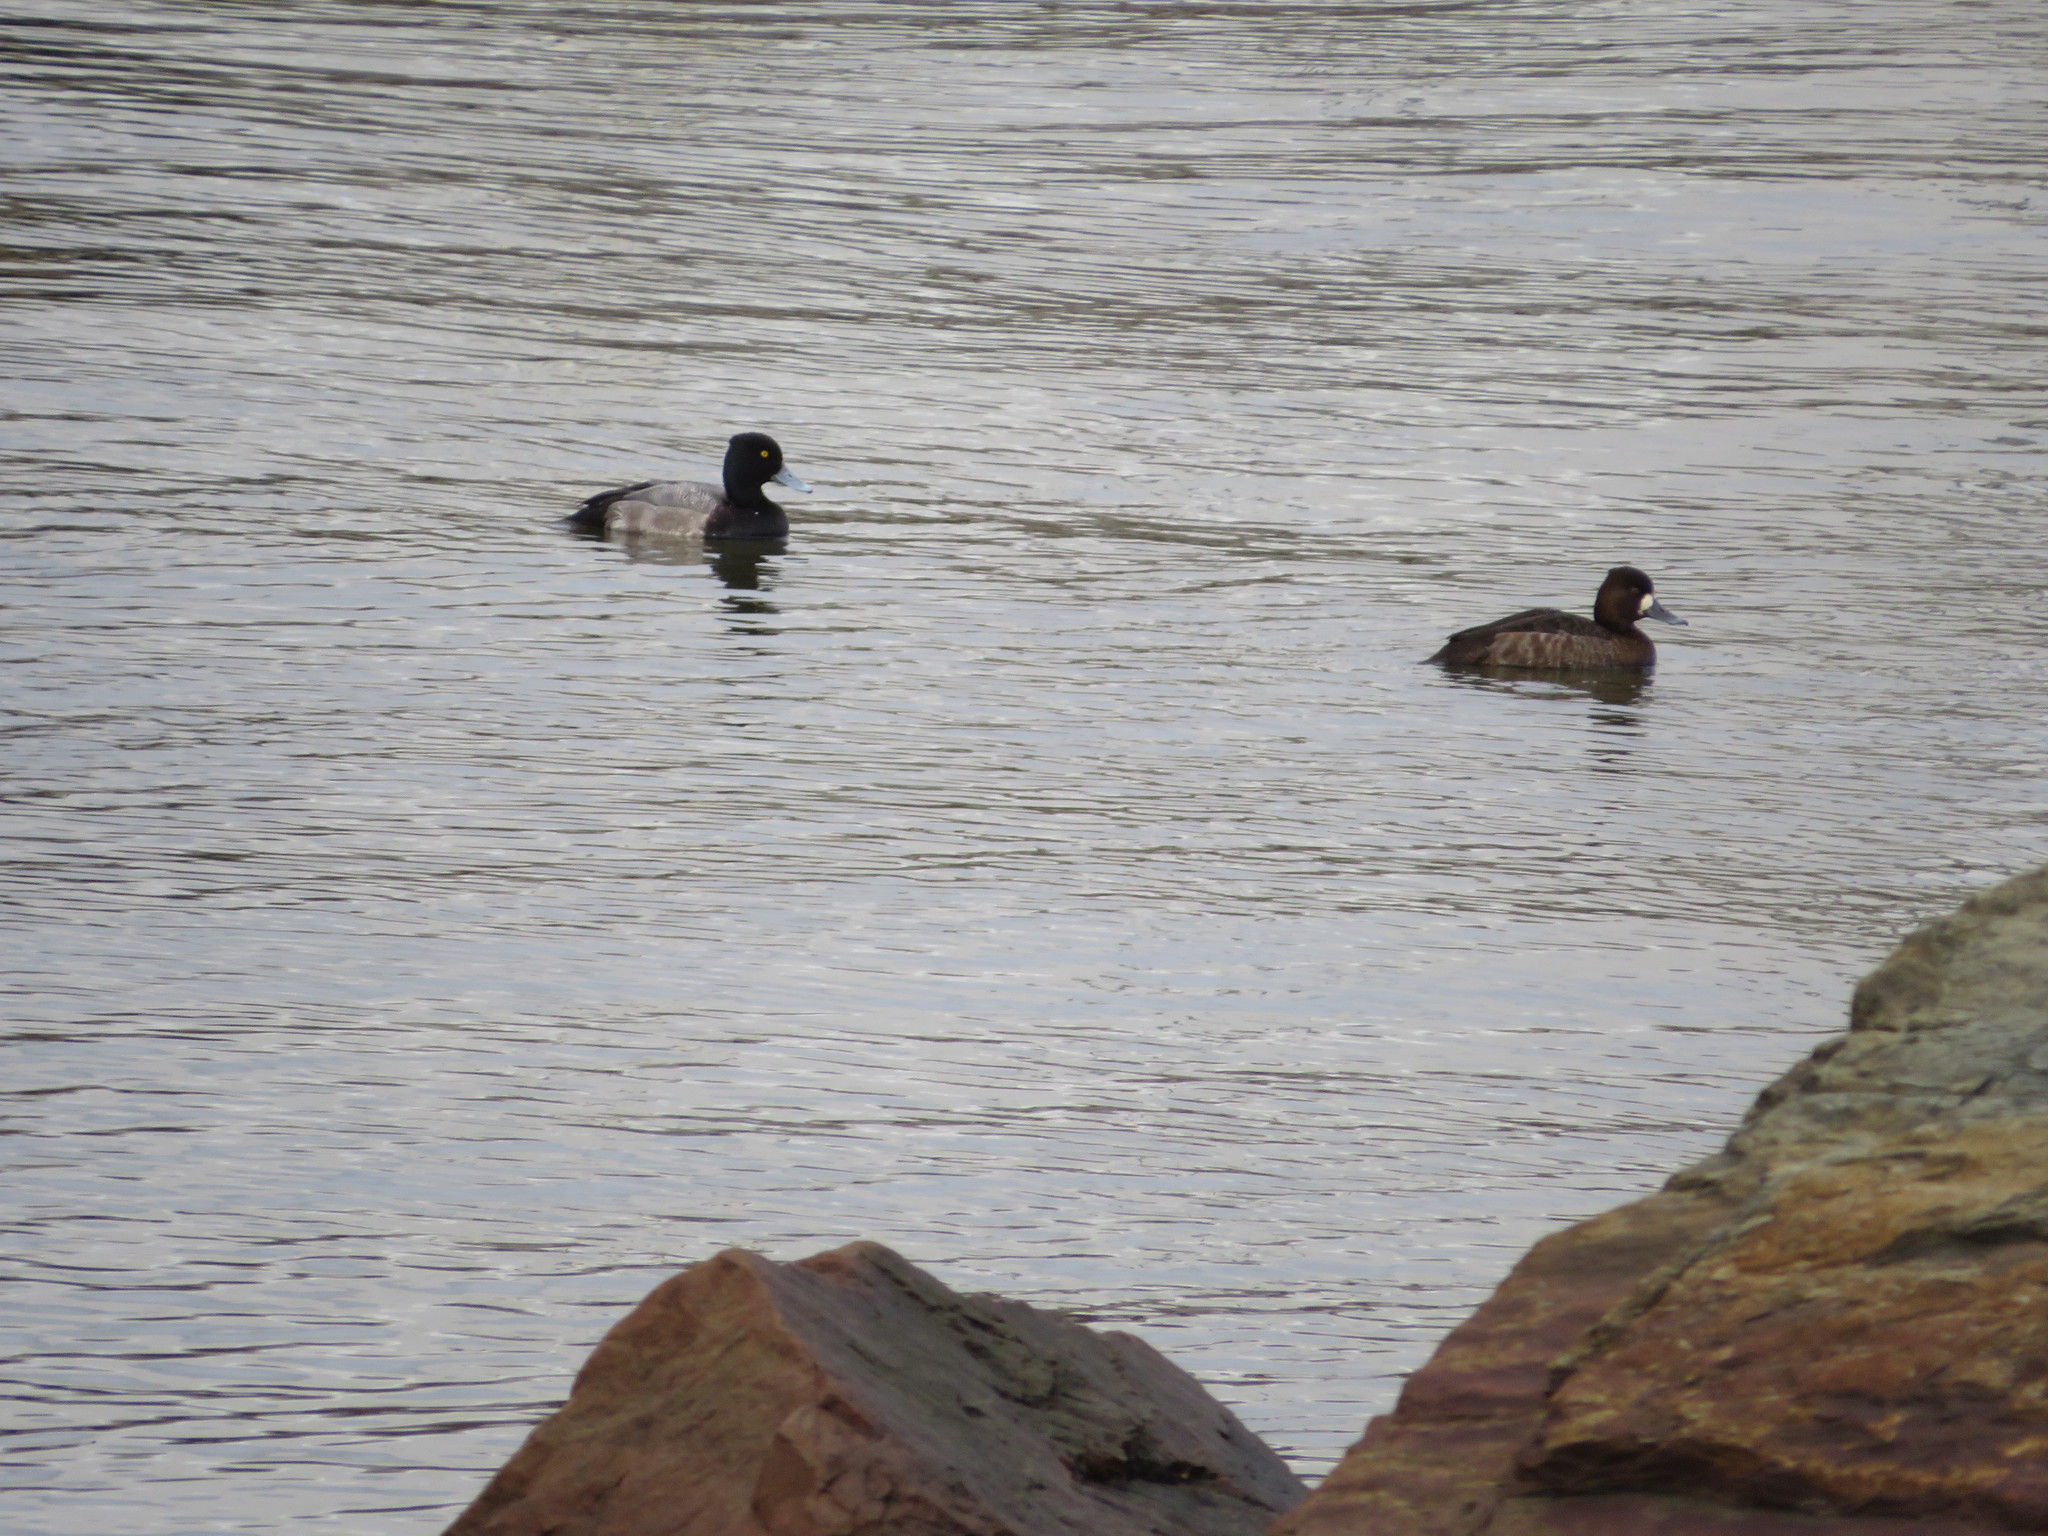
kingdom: Animalia
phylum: Chordata
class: Aves
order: Anseriformes
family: Anatidae
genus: Aythya
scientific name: Aythya affinis
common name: Lesser scaup
